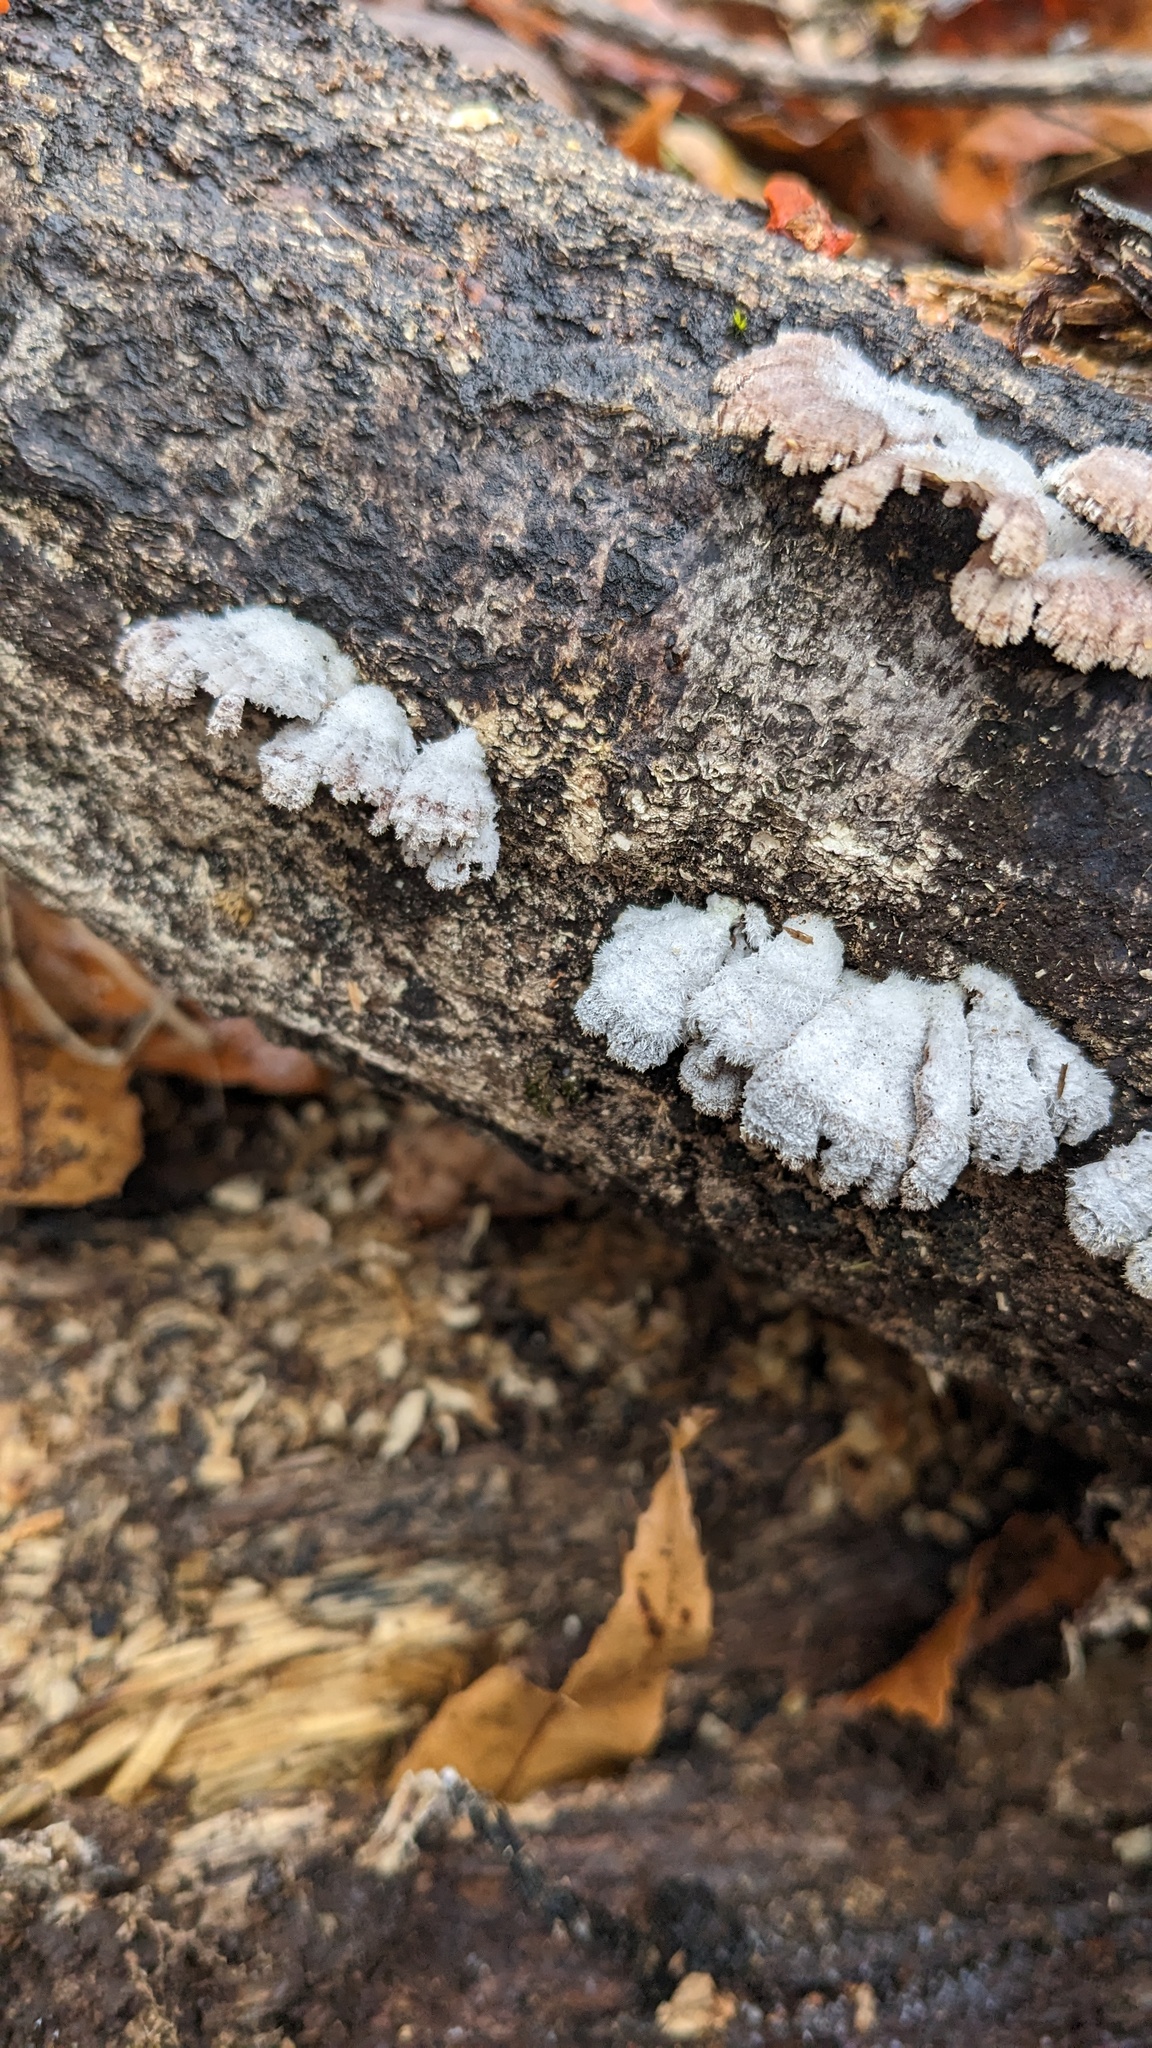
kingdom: Fungi
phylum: Basidiomycota
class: Agaricomycetes
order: Agaricales
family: Schizophyllaceae
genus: Schizophyllum
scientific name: Schizophyllum commune
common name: Common porecrust
